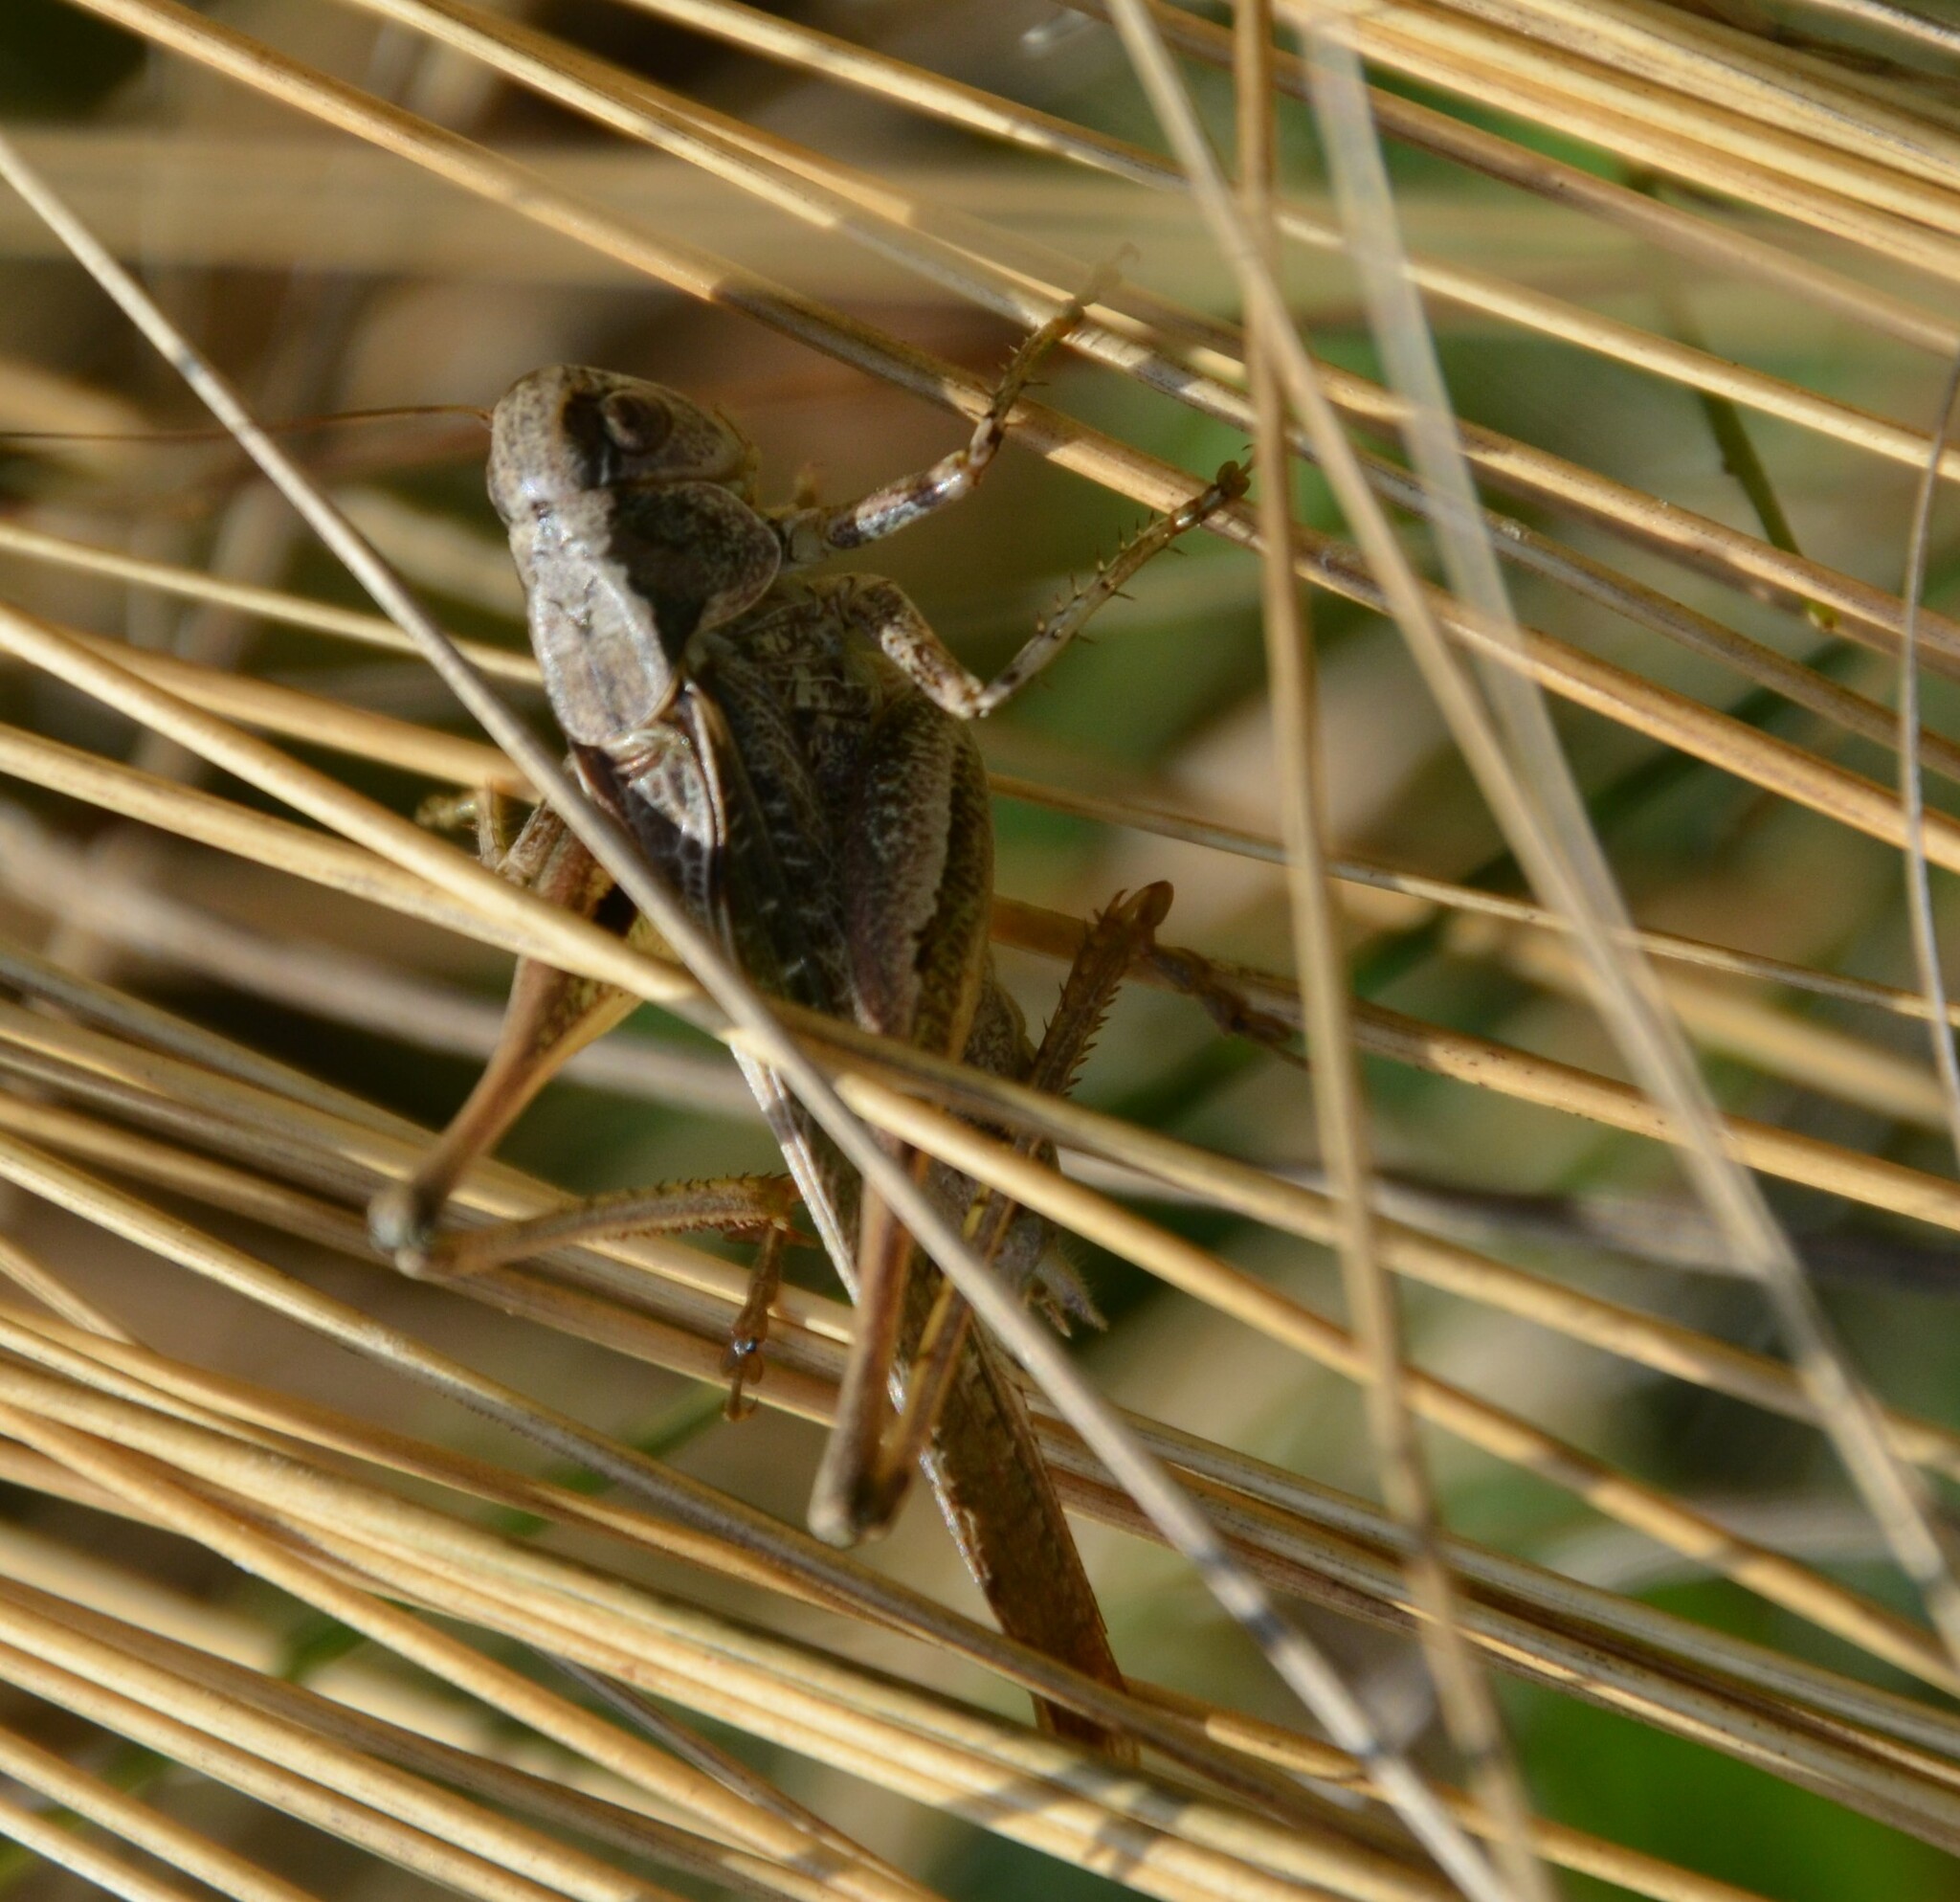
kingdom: Animalia
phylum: Arthropoda
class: Insecta
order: Orthoptera
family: Tettigoniidae
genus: Platycleis
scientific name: Platycleis grisea
